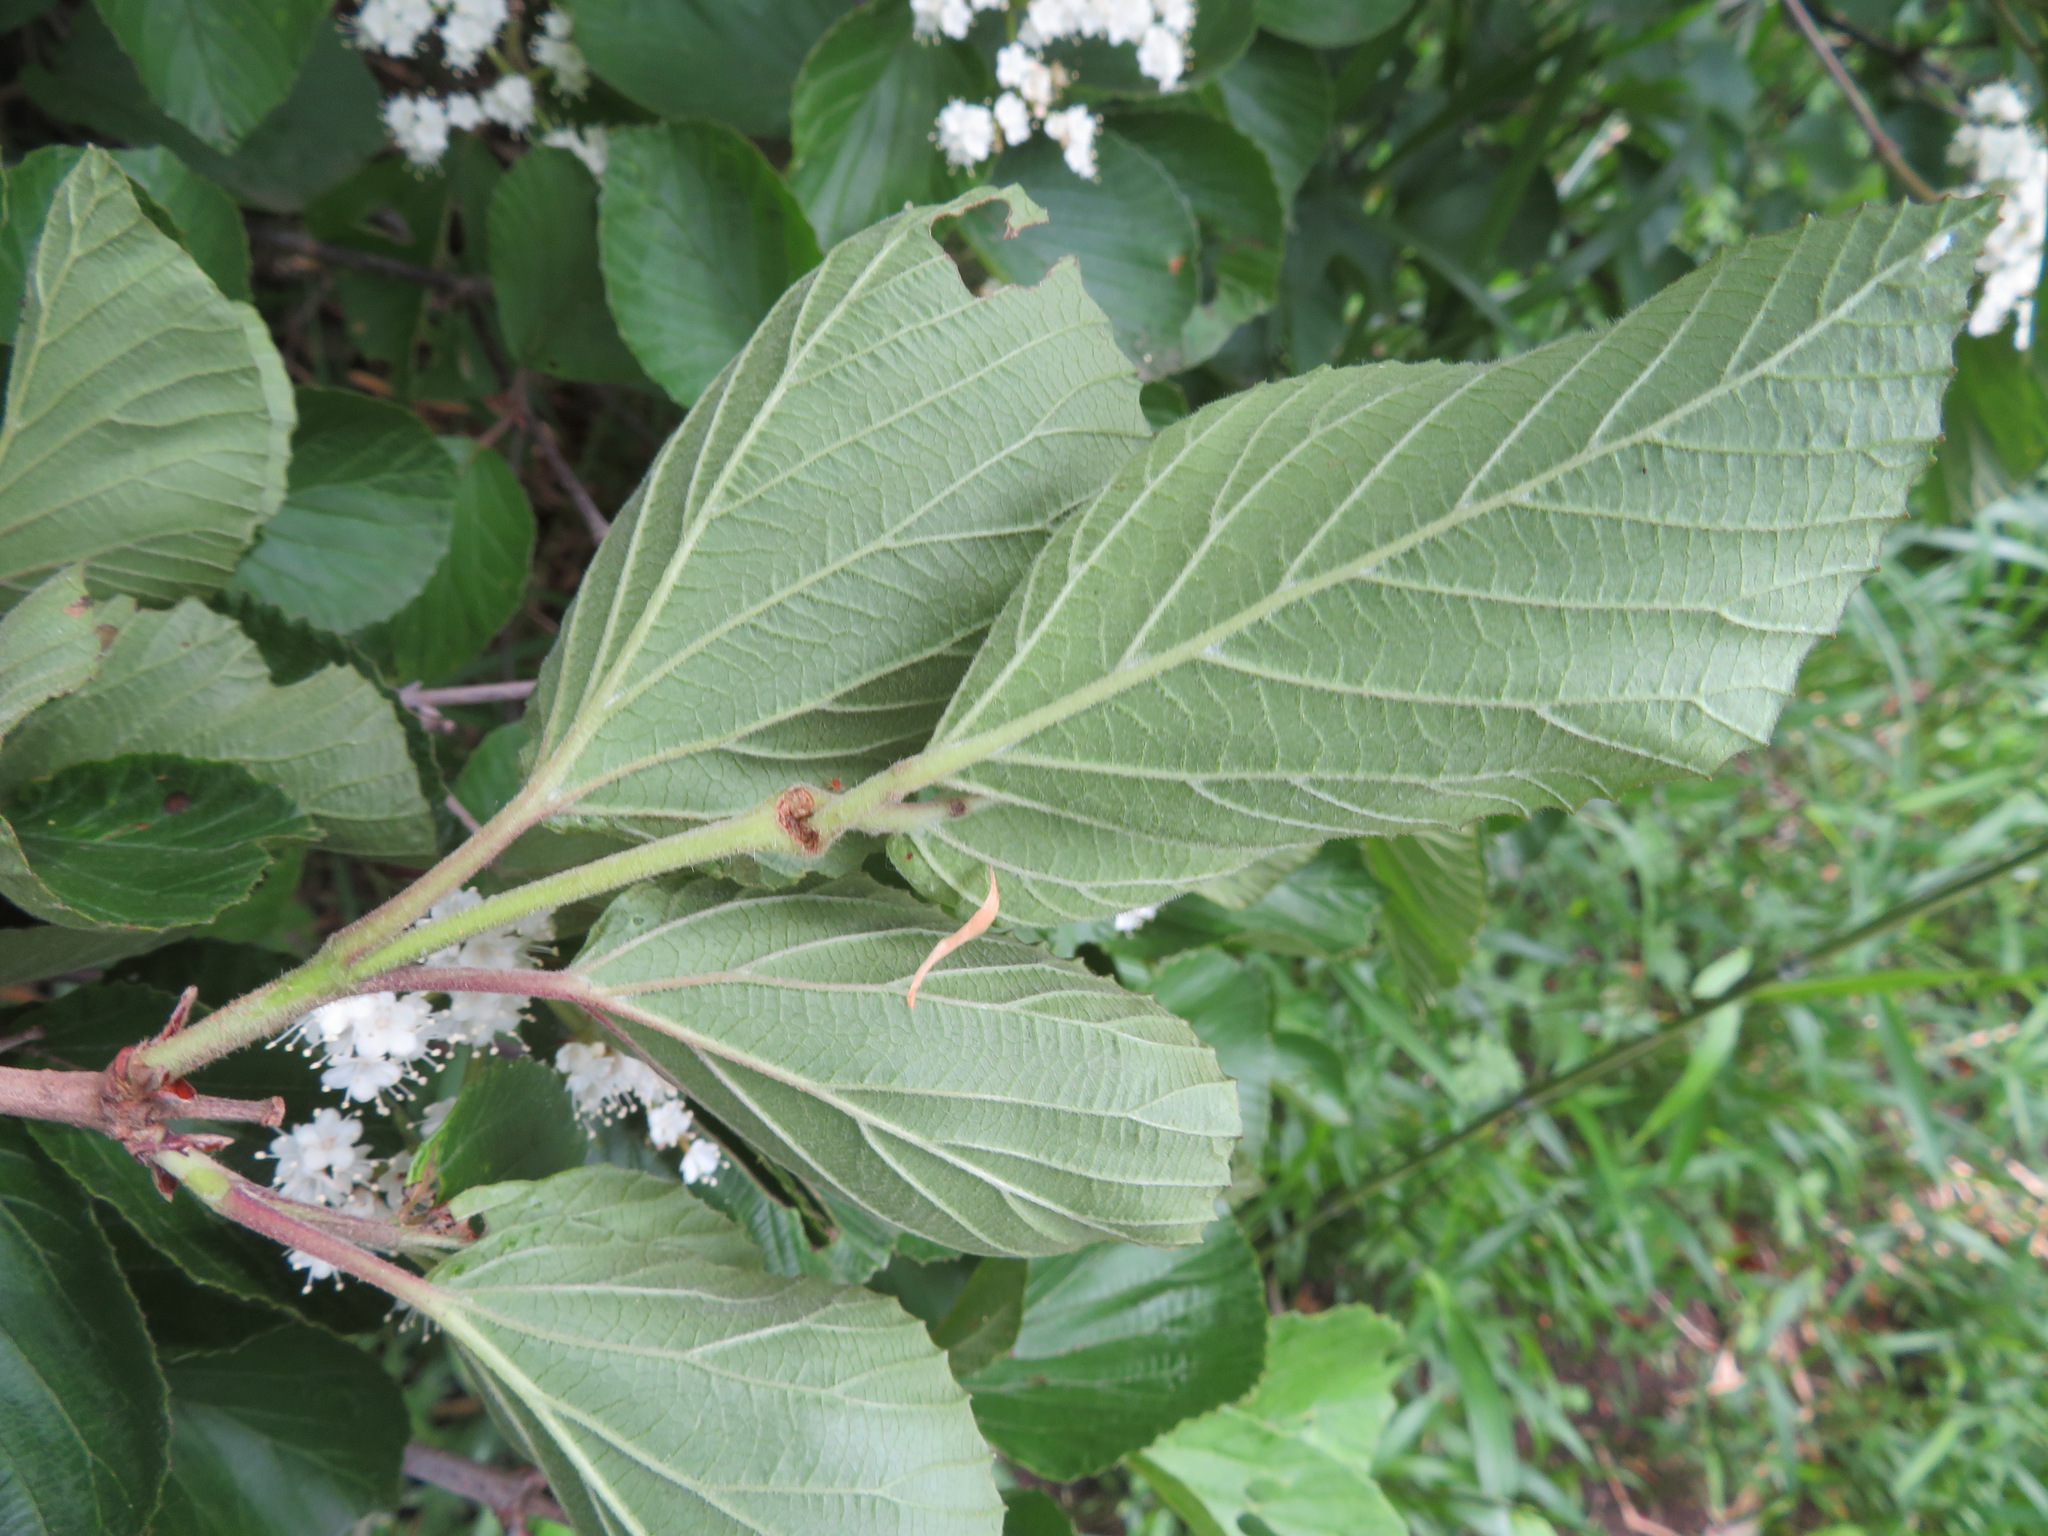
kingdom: Plantae
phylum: Tracheophyta
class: Magnoliopsida
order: Dipsacales
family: Viburnaceae
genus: Viburnum
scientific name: Viburnum dilatatum
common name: Linden arrowwood
